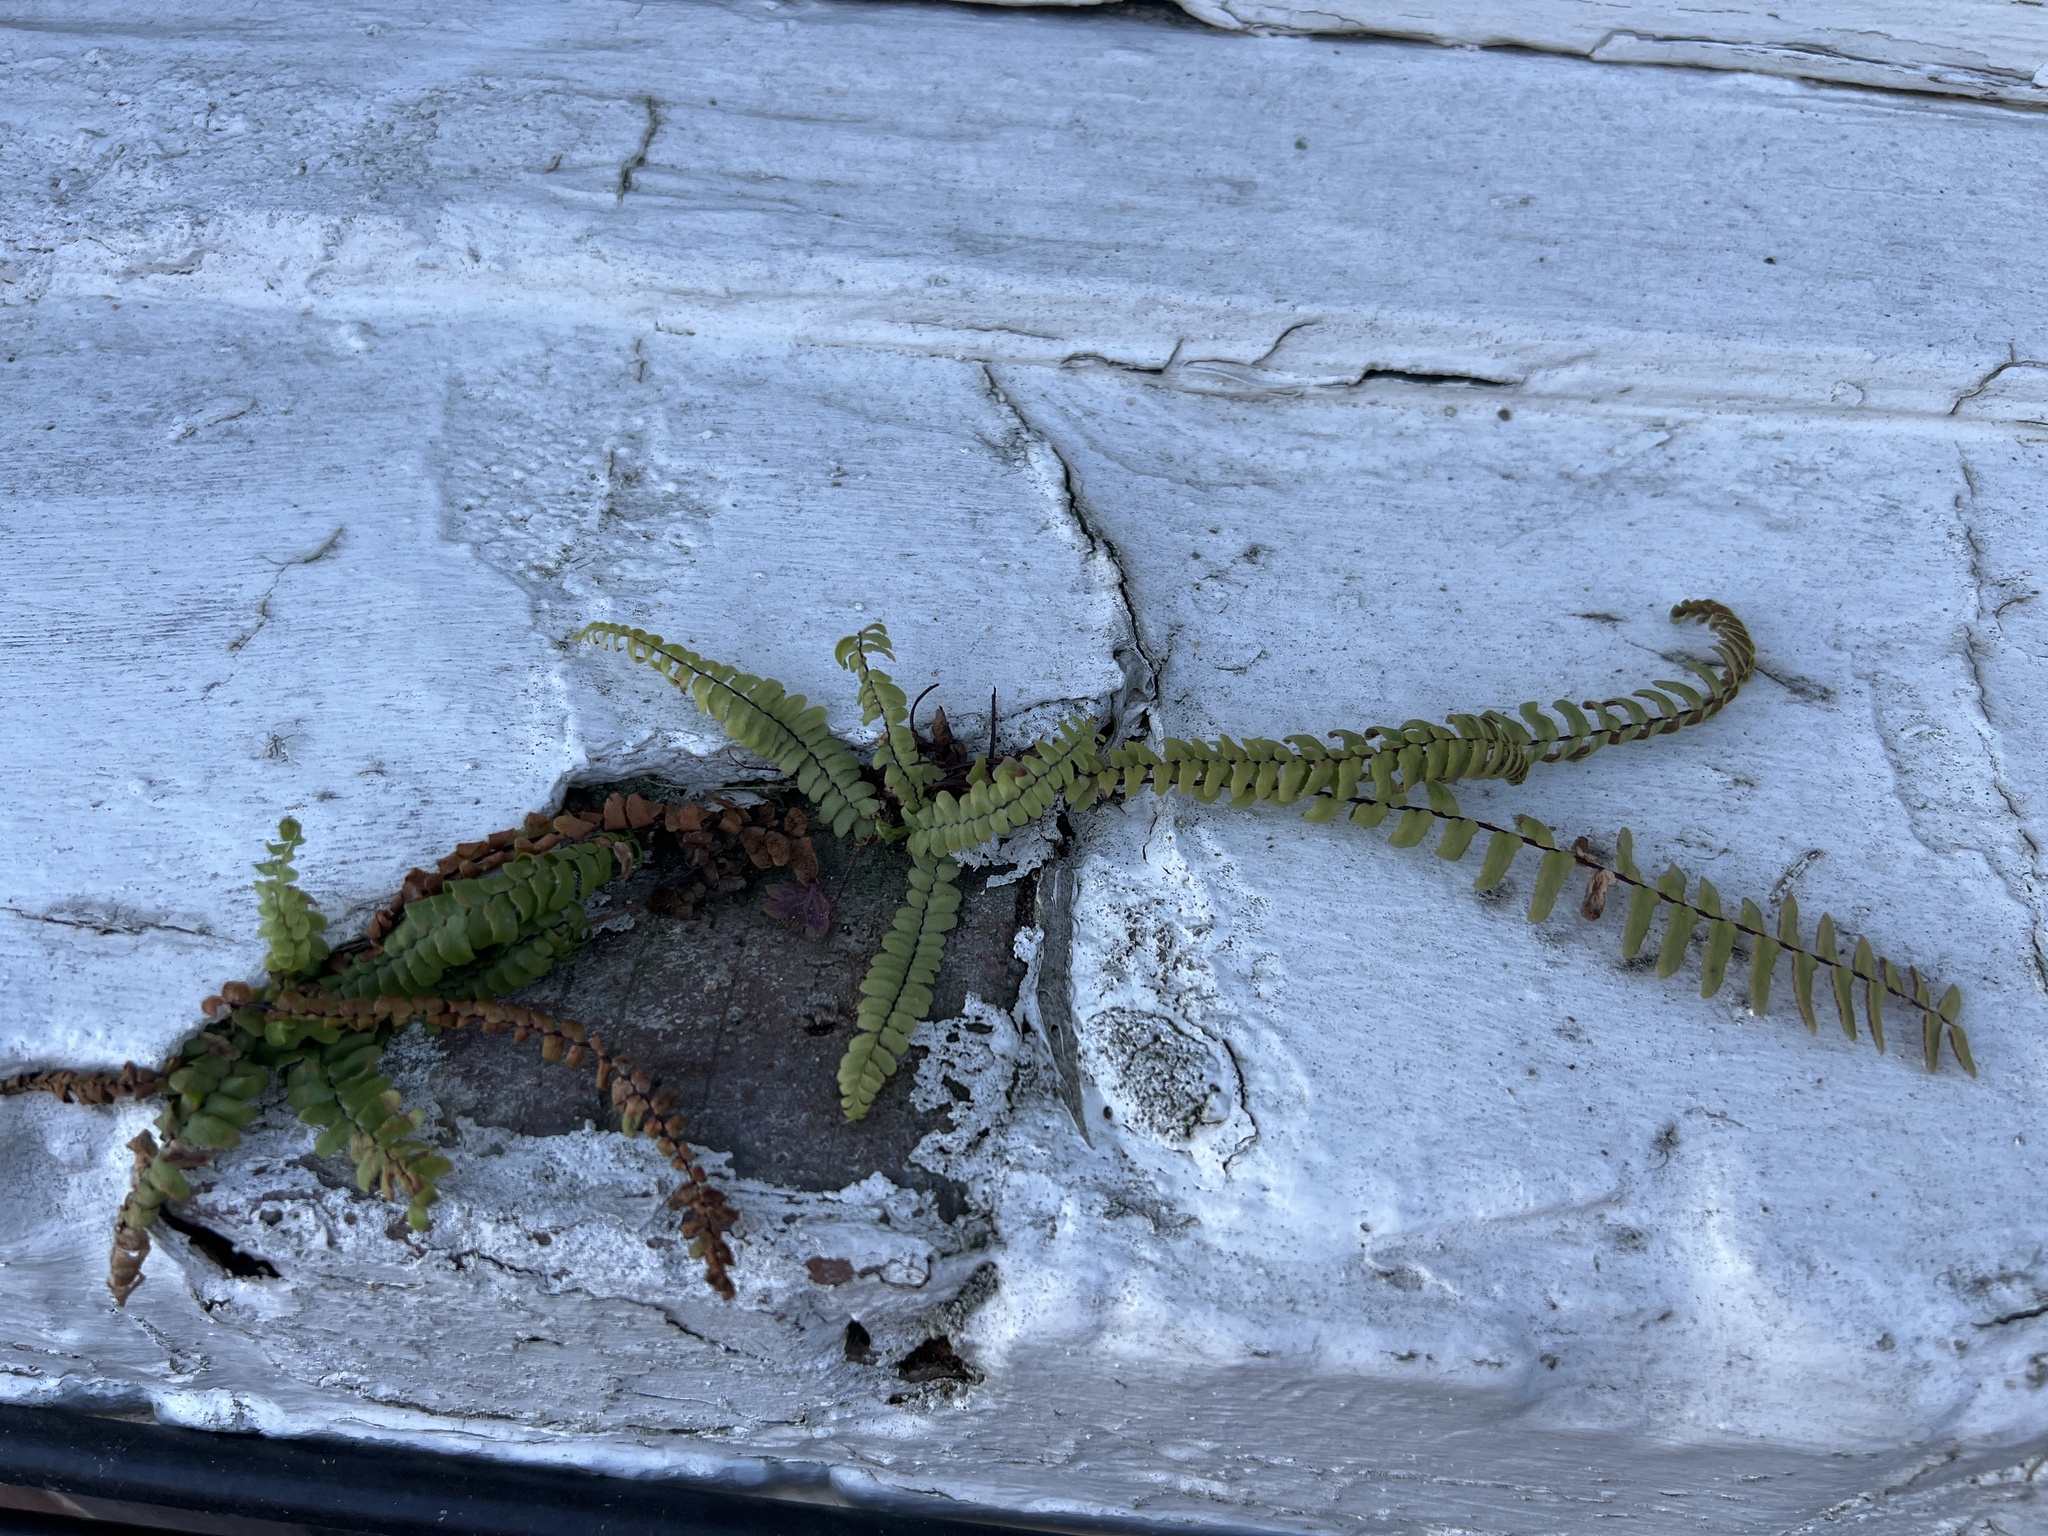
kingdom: Plantae
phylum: Tracheophyta
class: Polypodiopsida
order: Polypodiales
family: Aspleniaceae
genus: Asplenium
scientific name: Asplenium platyneuron
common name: Ebony spleenwort
